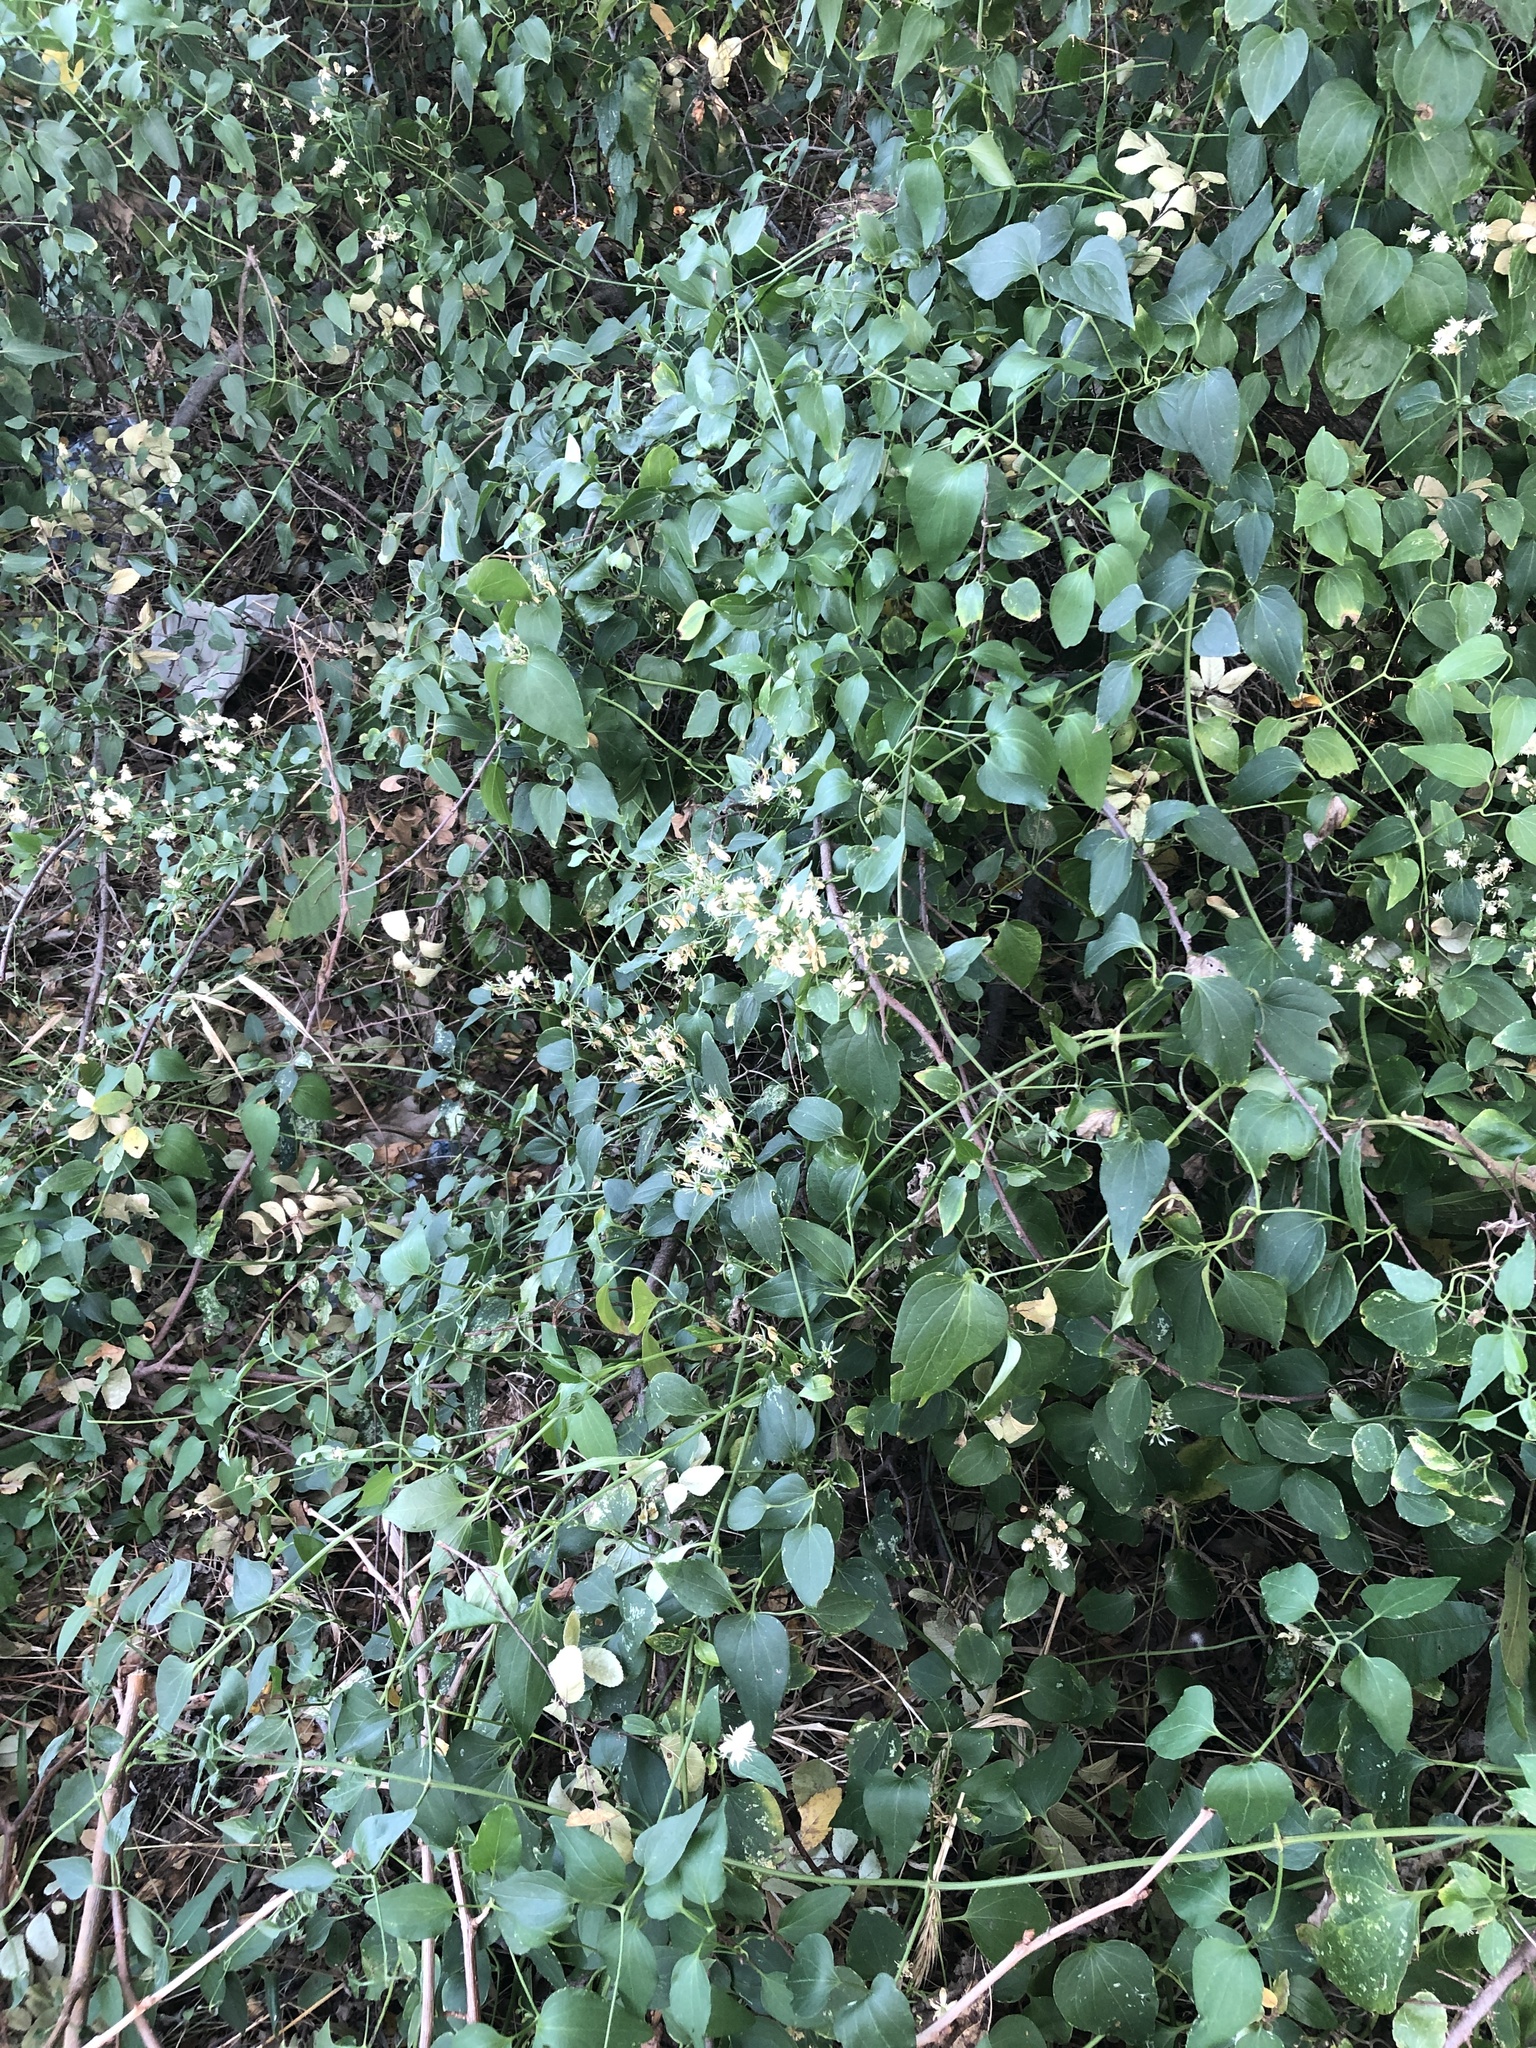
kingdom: Plantae
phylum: Tracheophyta
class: Magnoliopsida
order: Ranunculales
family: Ranunculaceae
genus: Clematis
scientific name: Clematis terniflora
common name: Sweet autumn clematis
